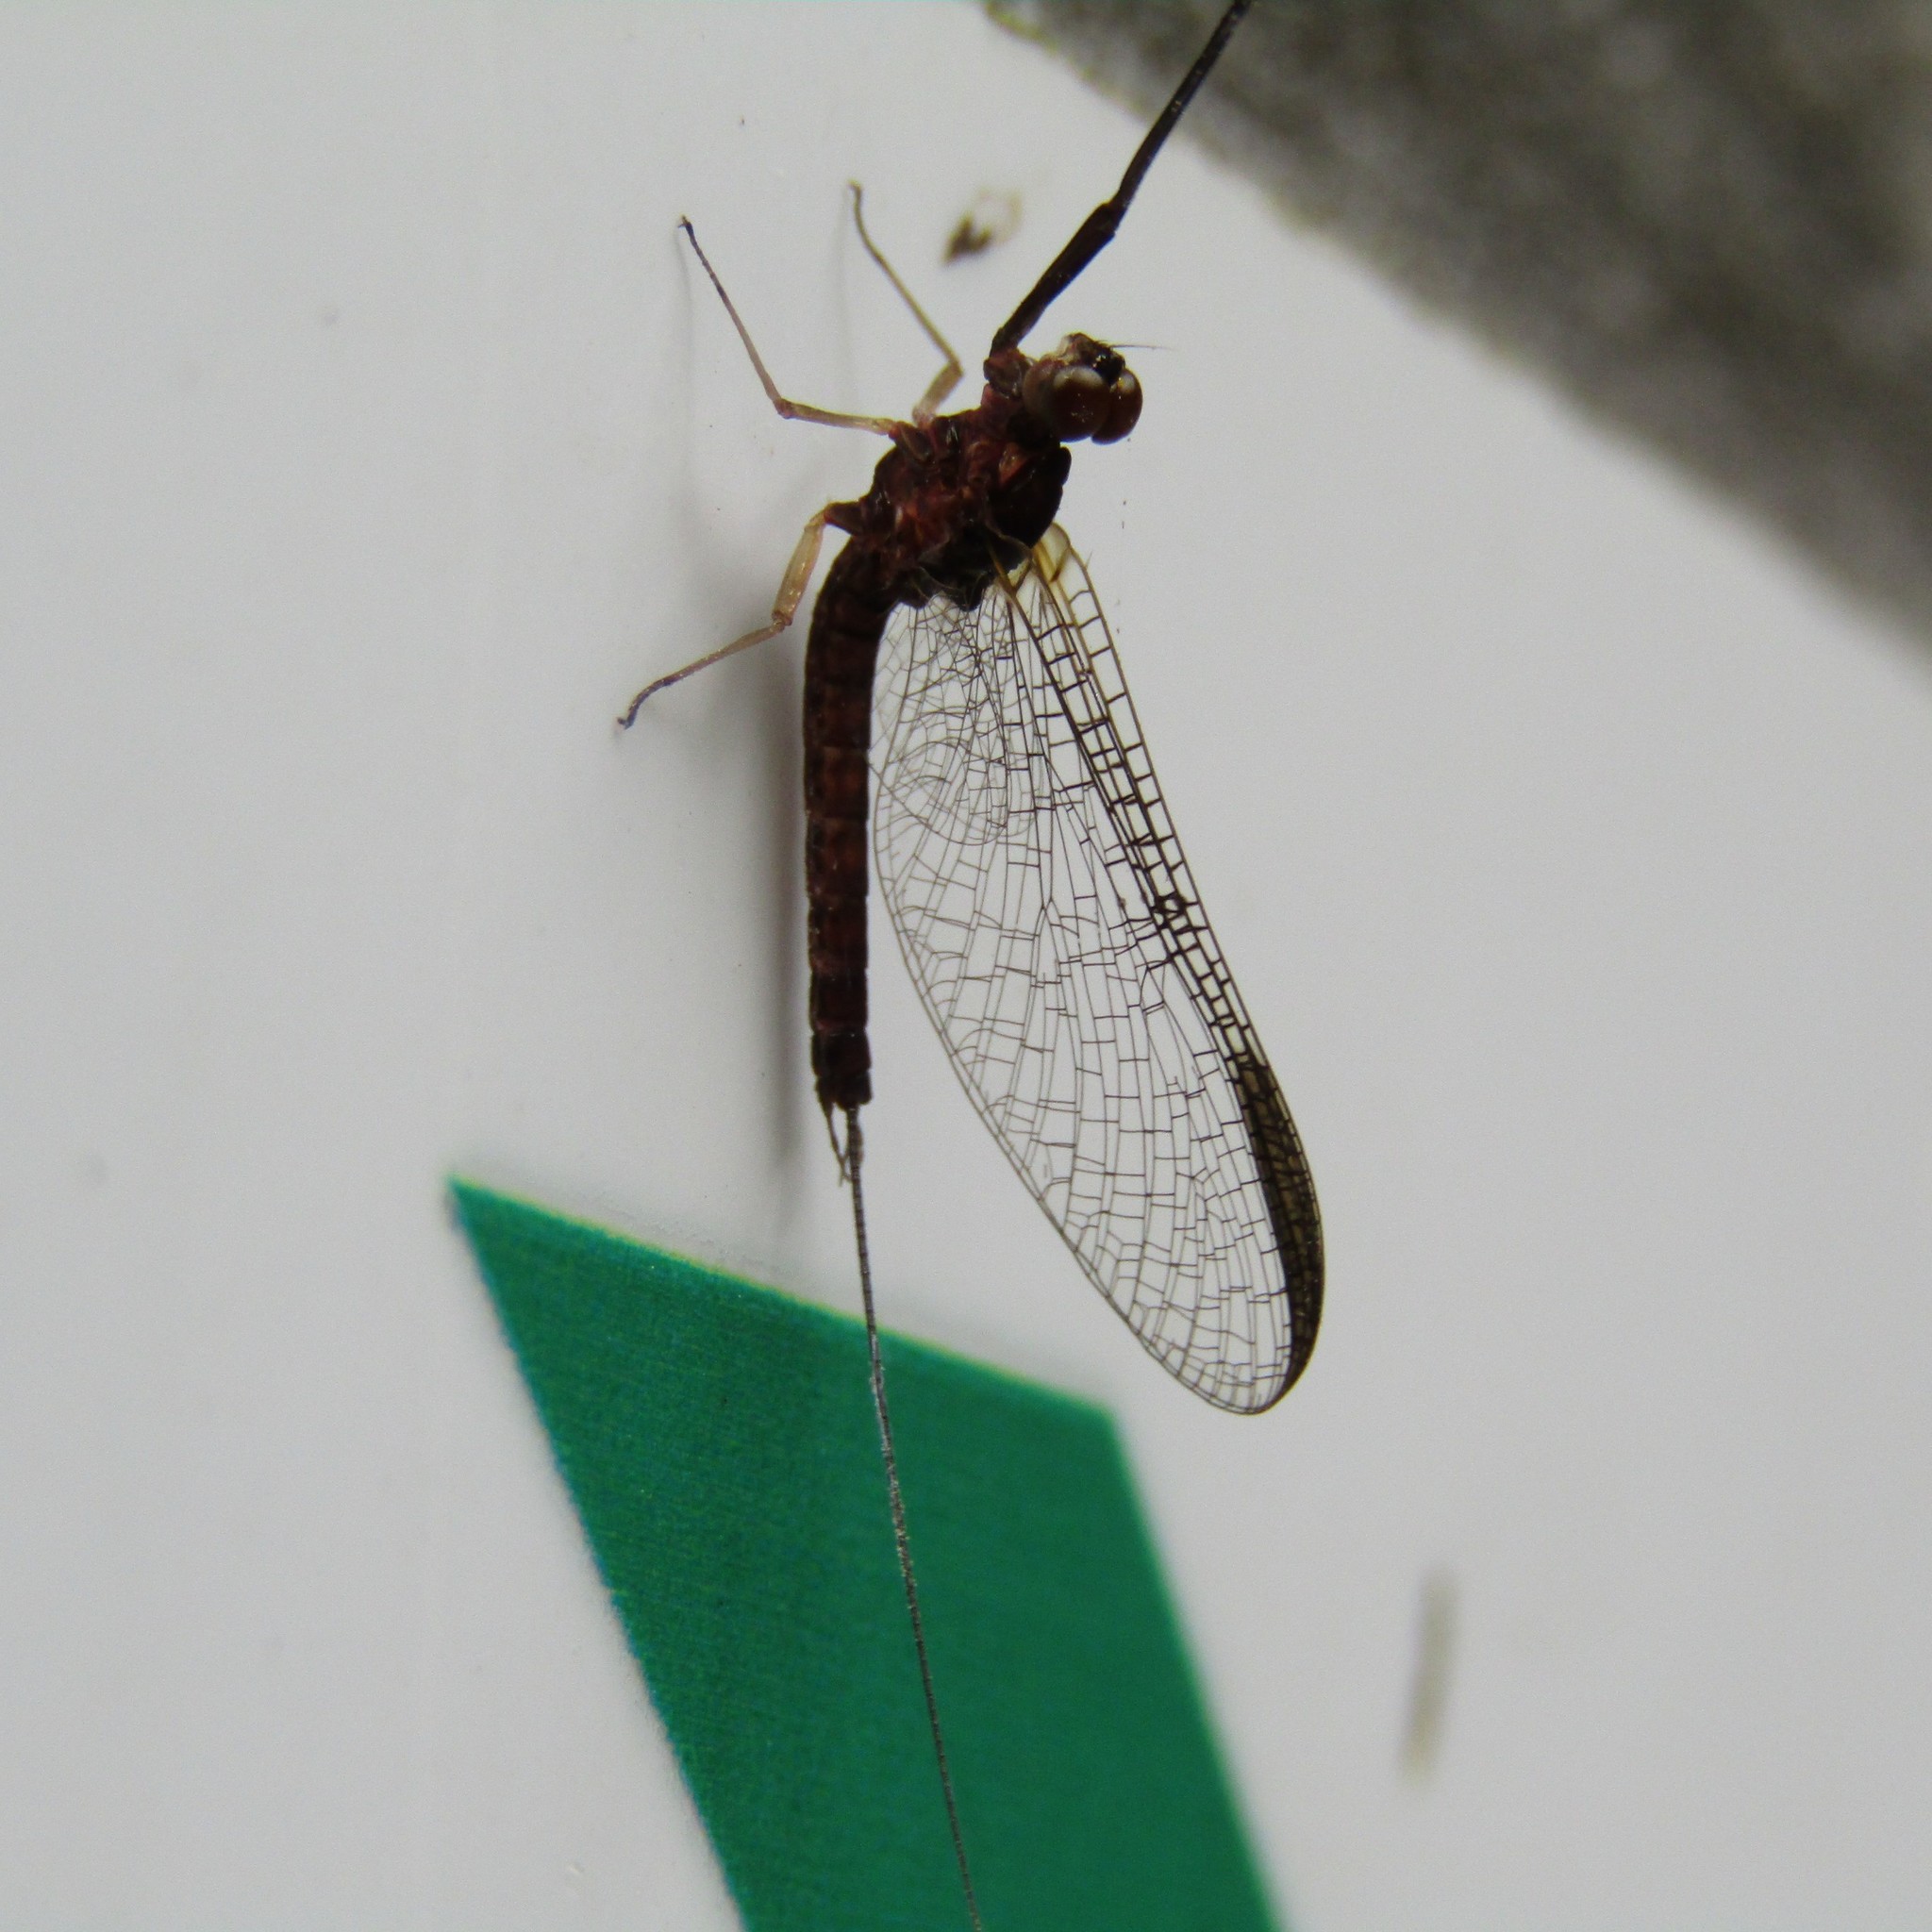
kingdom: Animalia
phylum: Arthropoda
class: Insecta
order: Ephemeroptera
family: Coloburiscidae
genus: Coloburiscus
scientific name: Coloburiscus humeralis
